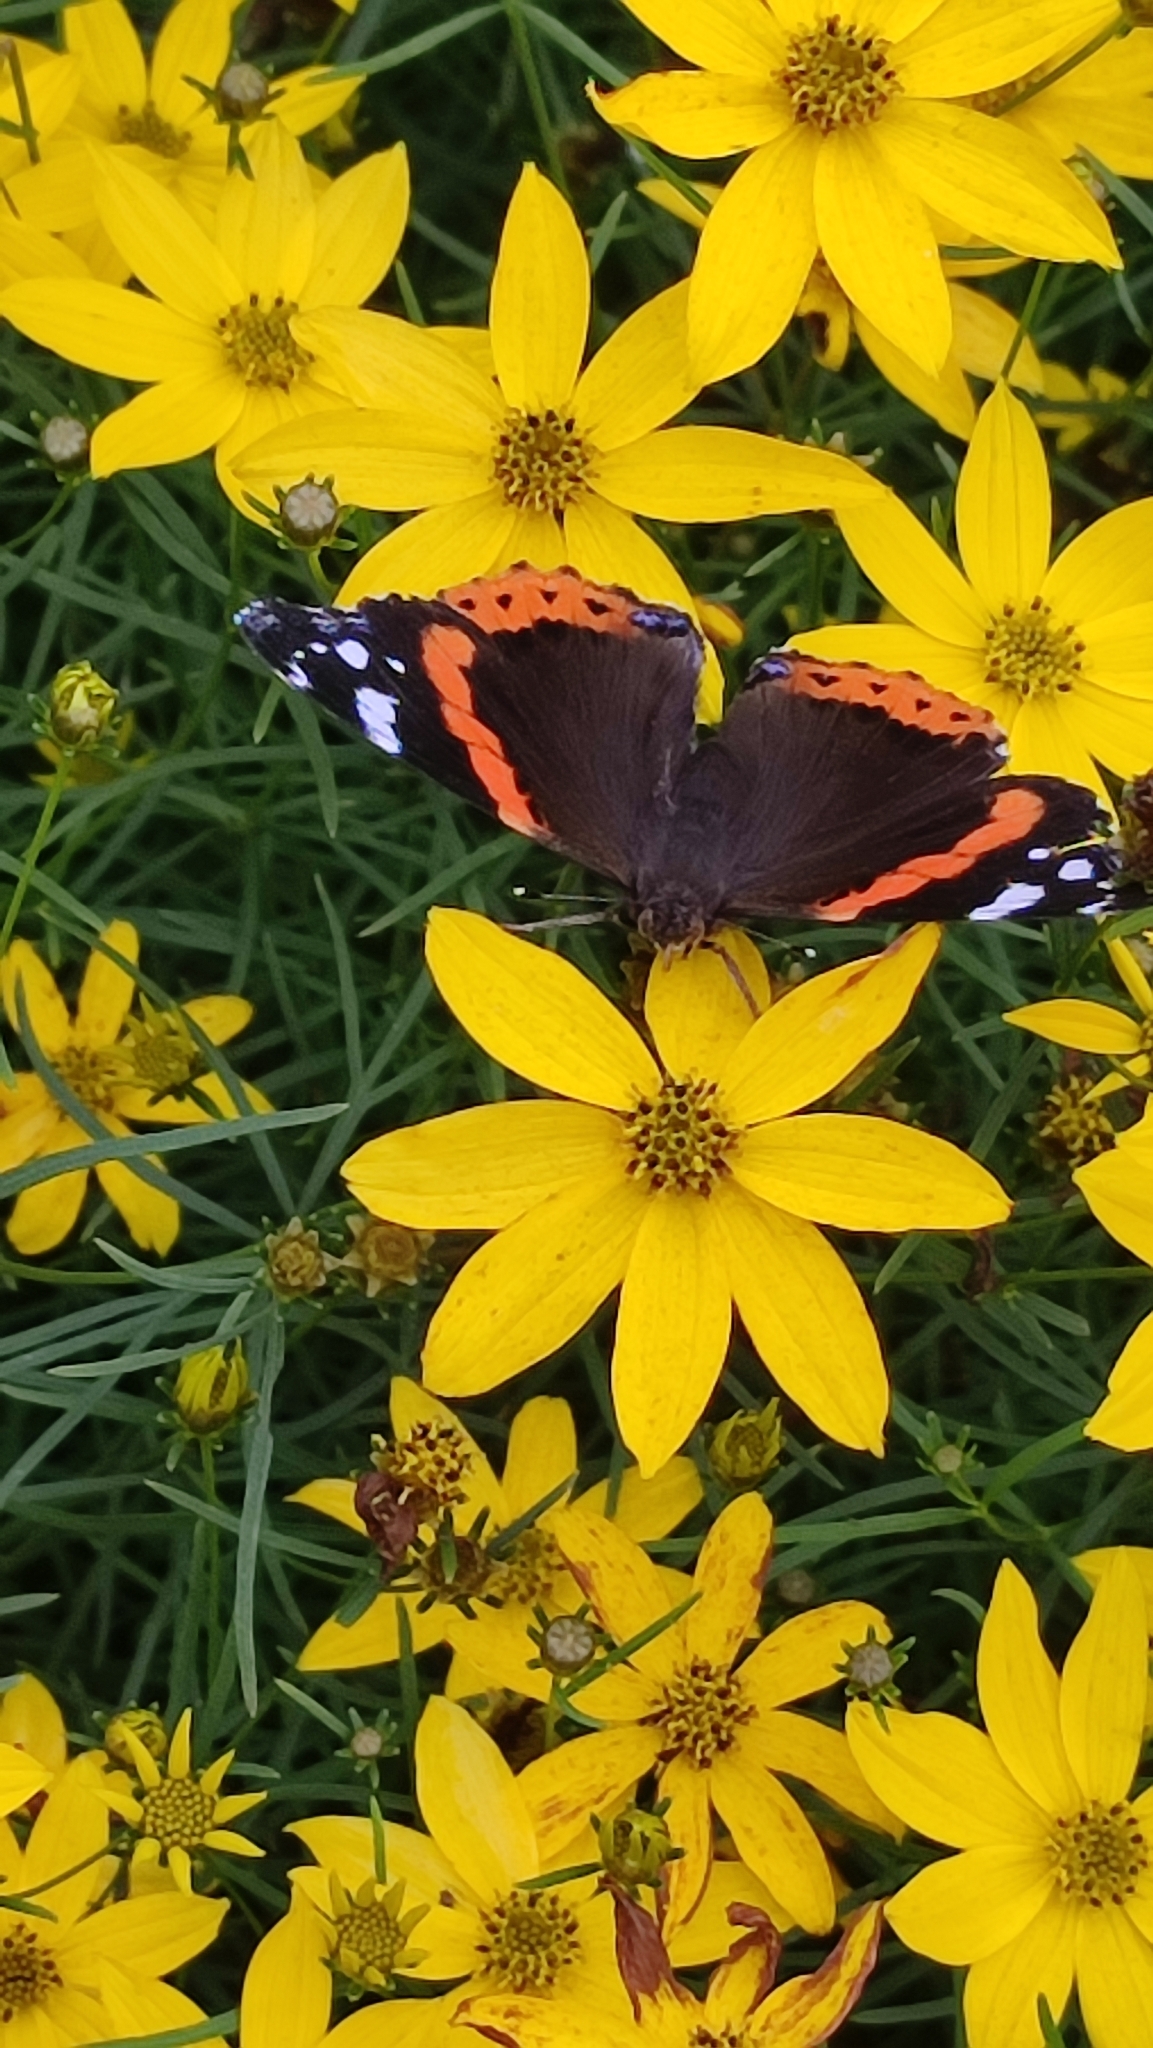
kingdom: Animalia
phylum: Arthropoda
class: Insecta
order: Lepidoptera
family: Nymphalidae
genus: Vanessa
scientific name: Vanessa atalanta
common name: Red admiral
